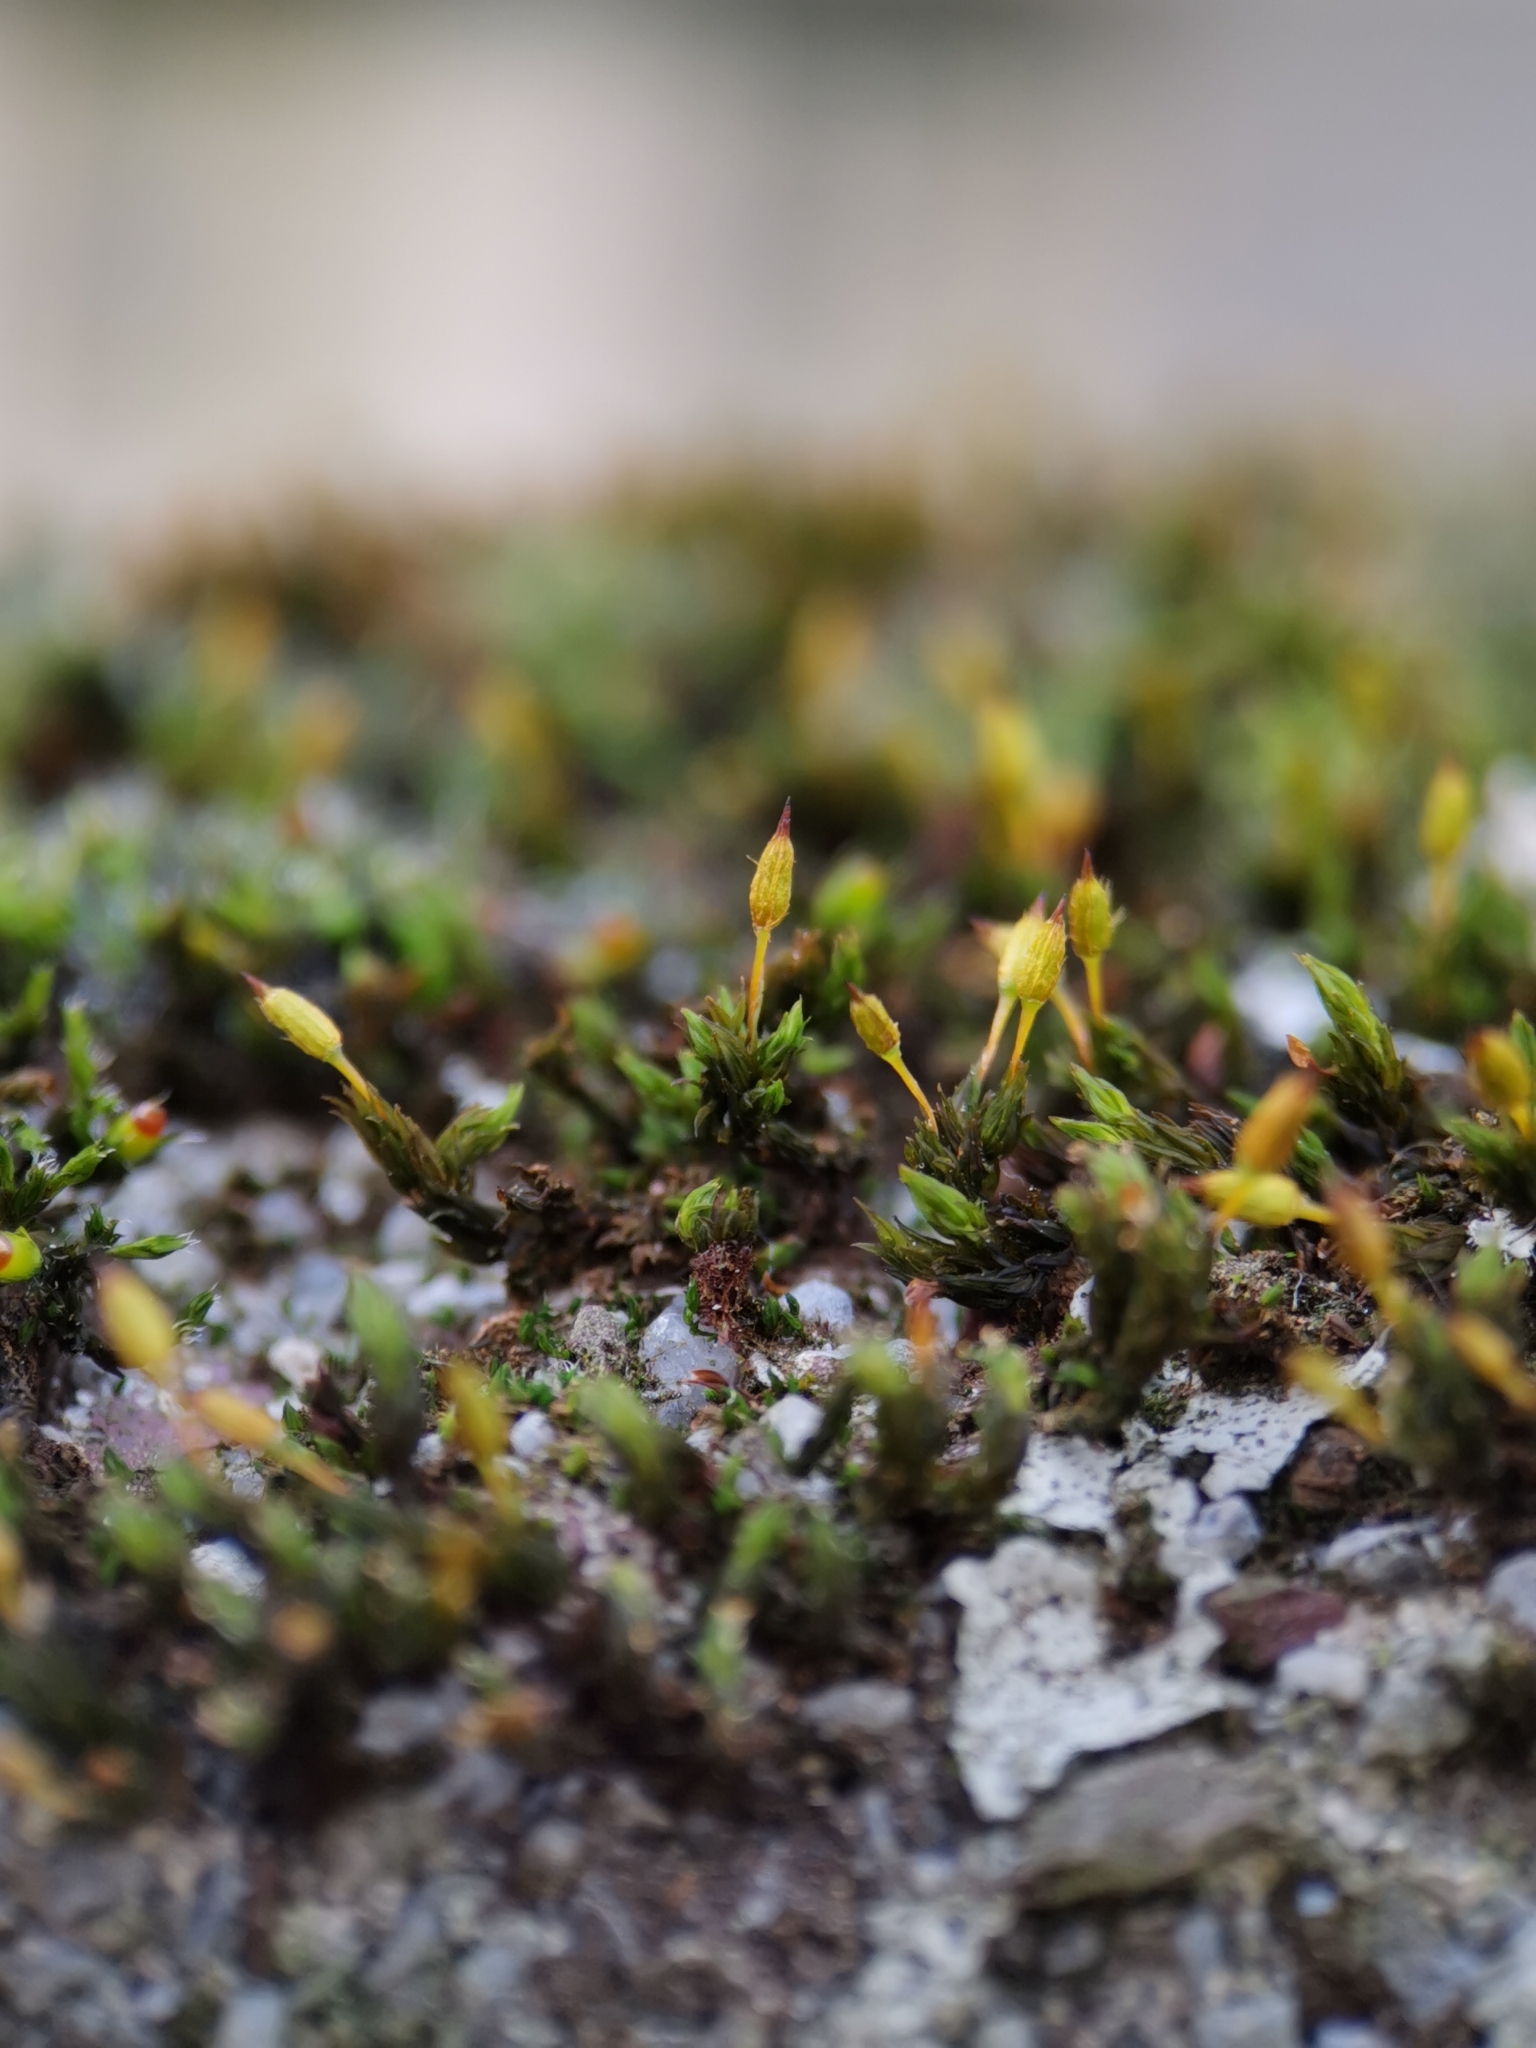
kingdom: Plantae
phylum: Bryophyta
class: Bryopsida
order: Orthotrichales
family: Orthotrichaceae
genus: Orthotrichum
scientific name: Orthotrichum anomalum
